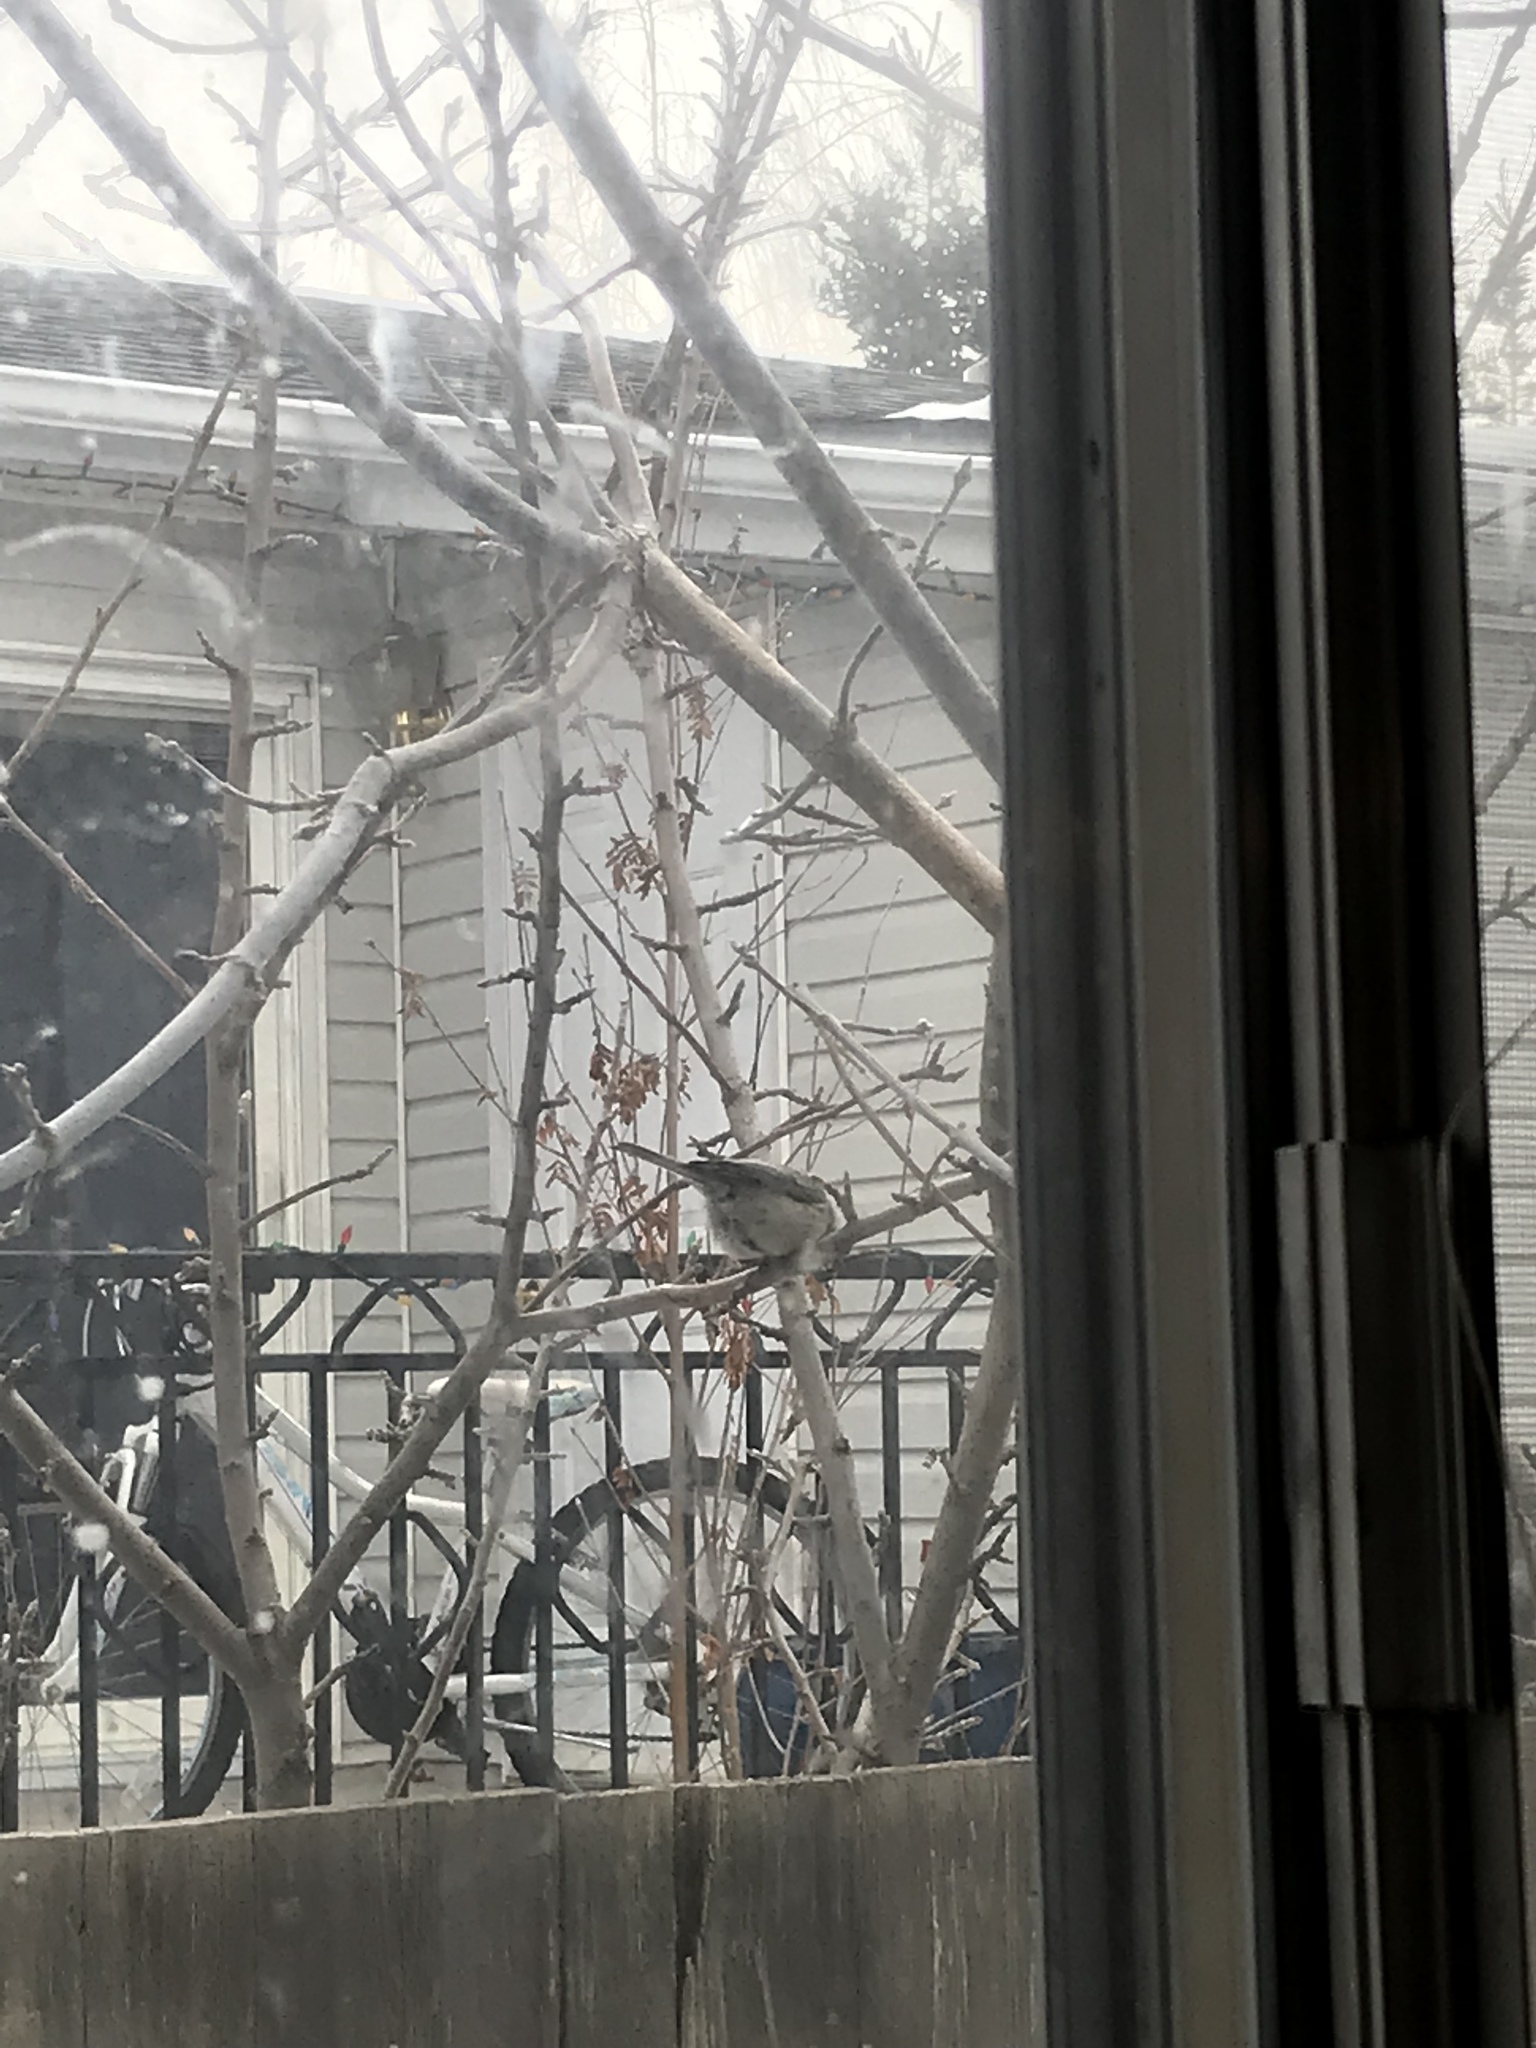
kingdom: Animalia
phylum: Chordata
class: Aves
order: Passeriformes
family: Paridae
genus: Poecile
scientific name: Poecile gambeli
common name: Mountain chickadee
